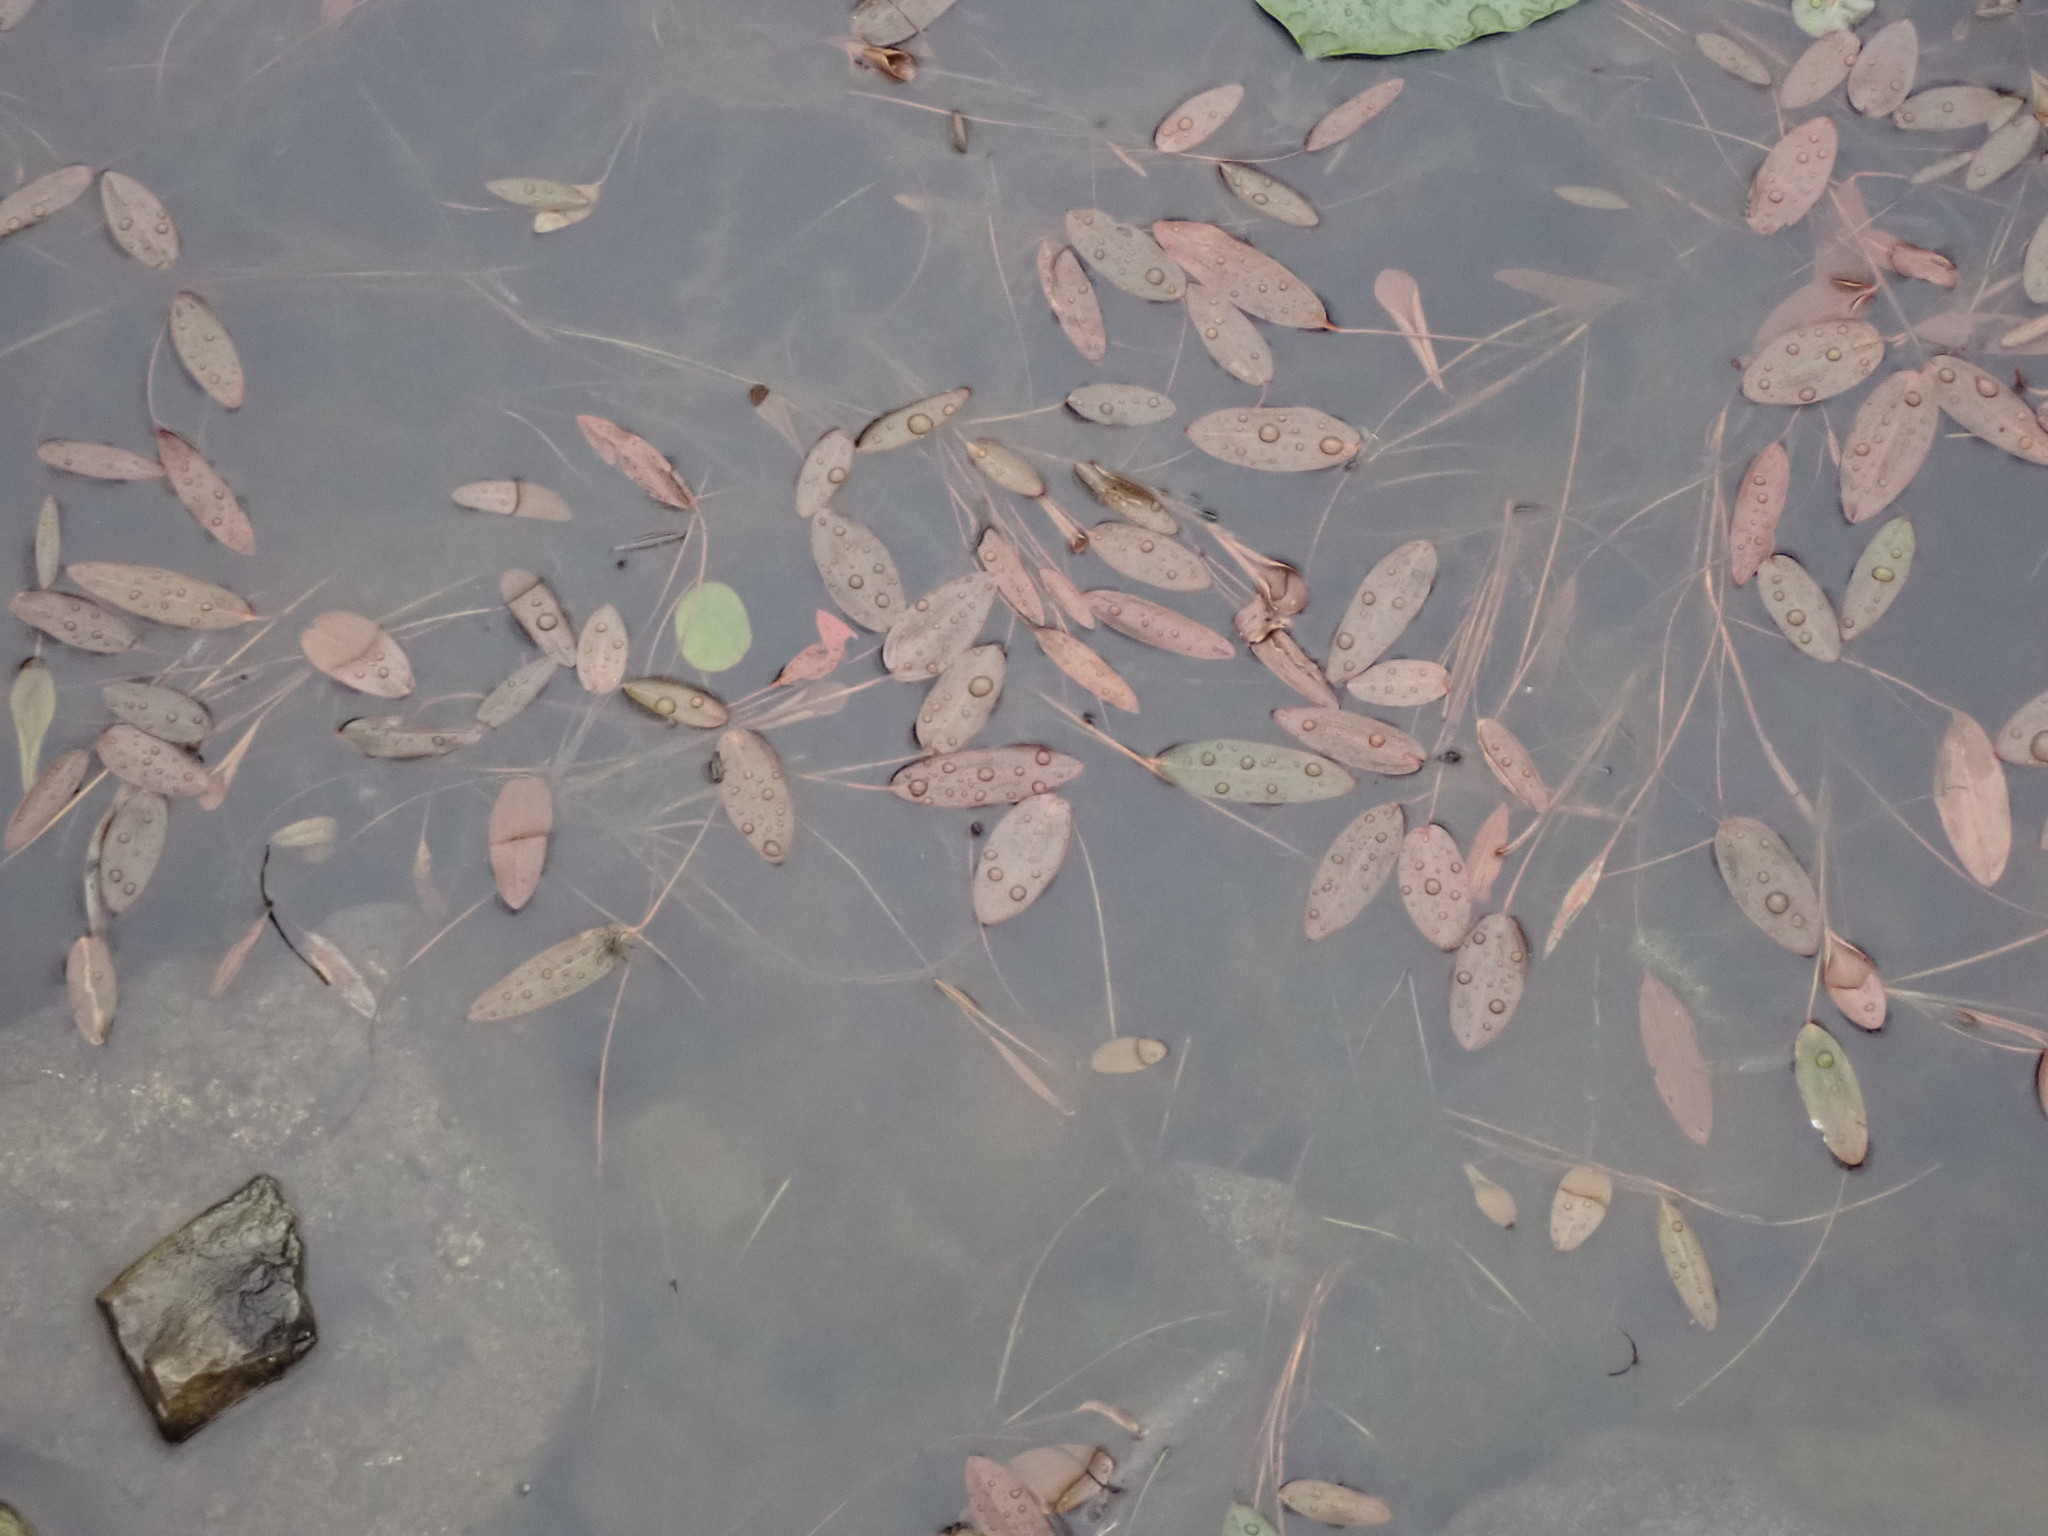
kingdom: Plantae
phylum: Tracheophyta
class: Liliopsida
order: Alismatales
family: Potamogetonaceae
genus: Potamogeton
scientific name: Potamogeton natans
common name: Broad-leaved pondweed
